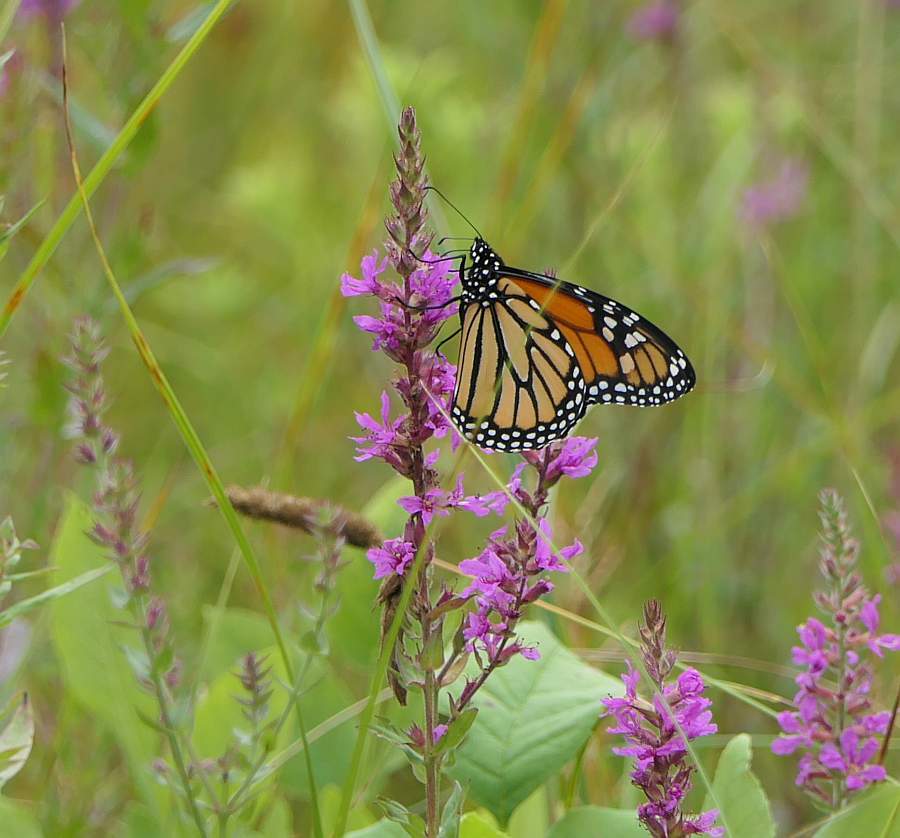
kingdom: Animalia
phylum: Arthropoda
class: Insecta
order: Lepidoptera
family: Nymphalidae
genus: Danaus
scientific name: Danaus plexippus
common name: Monarch
